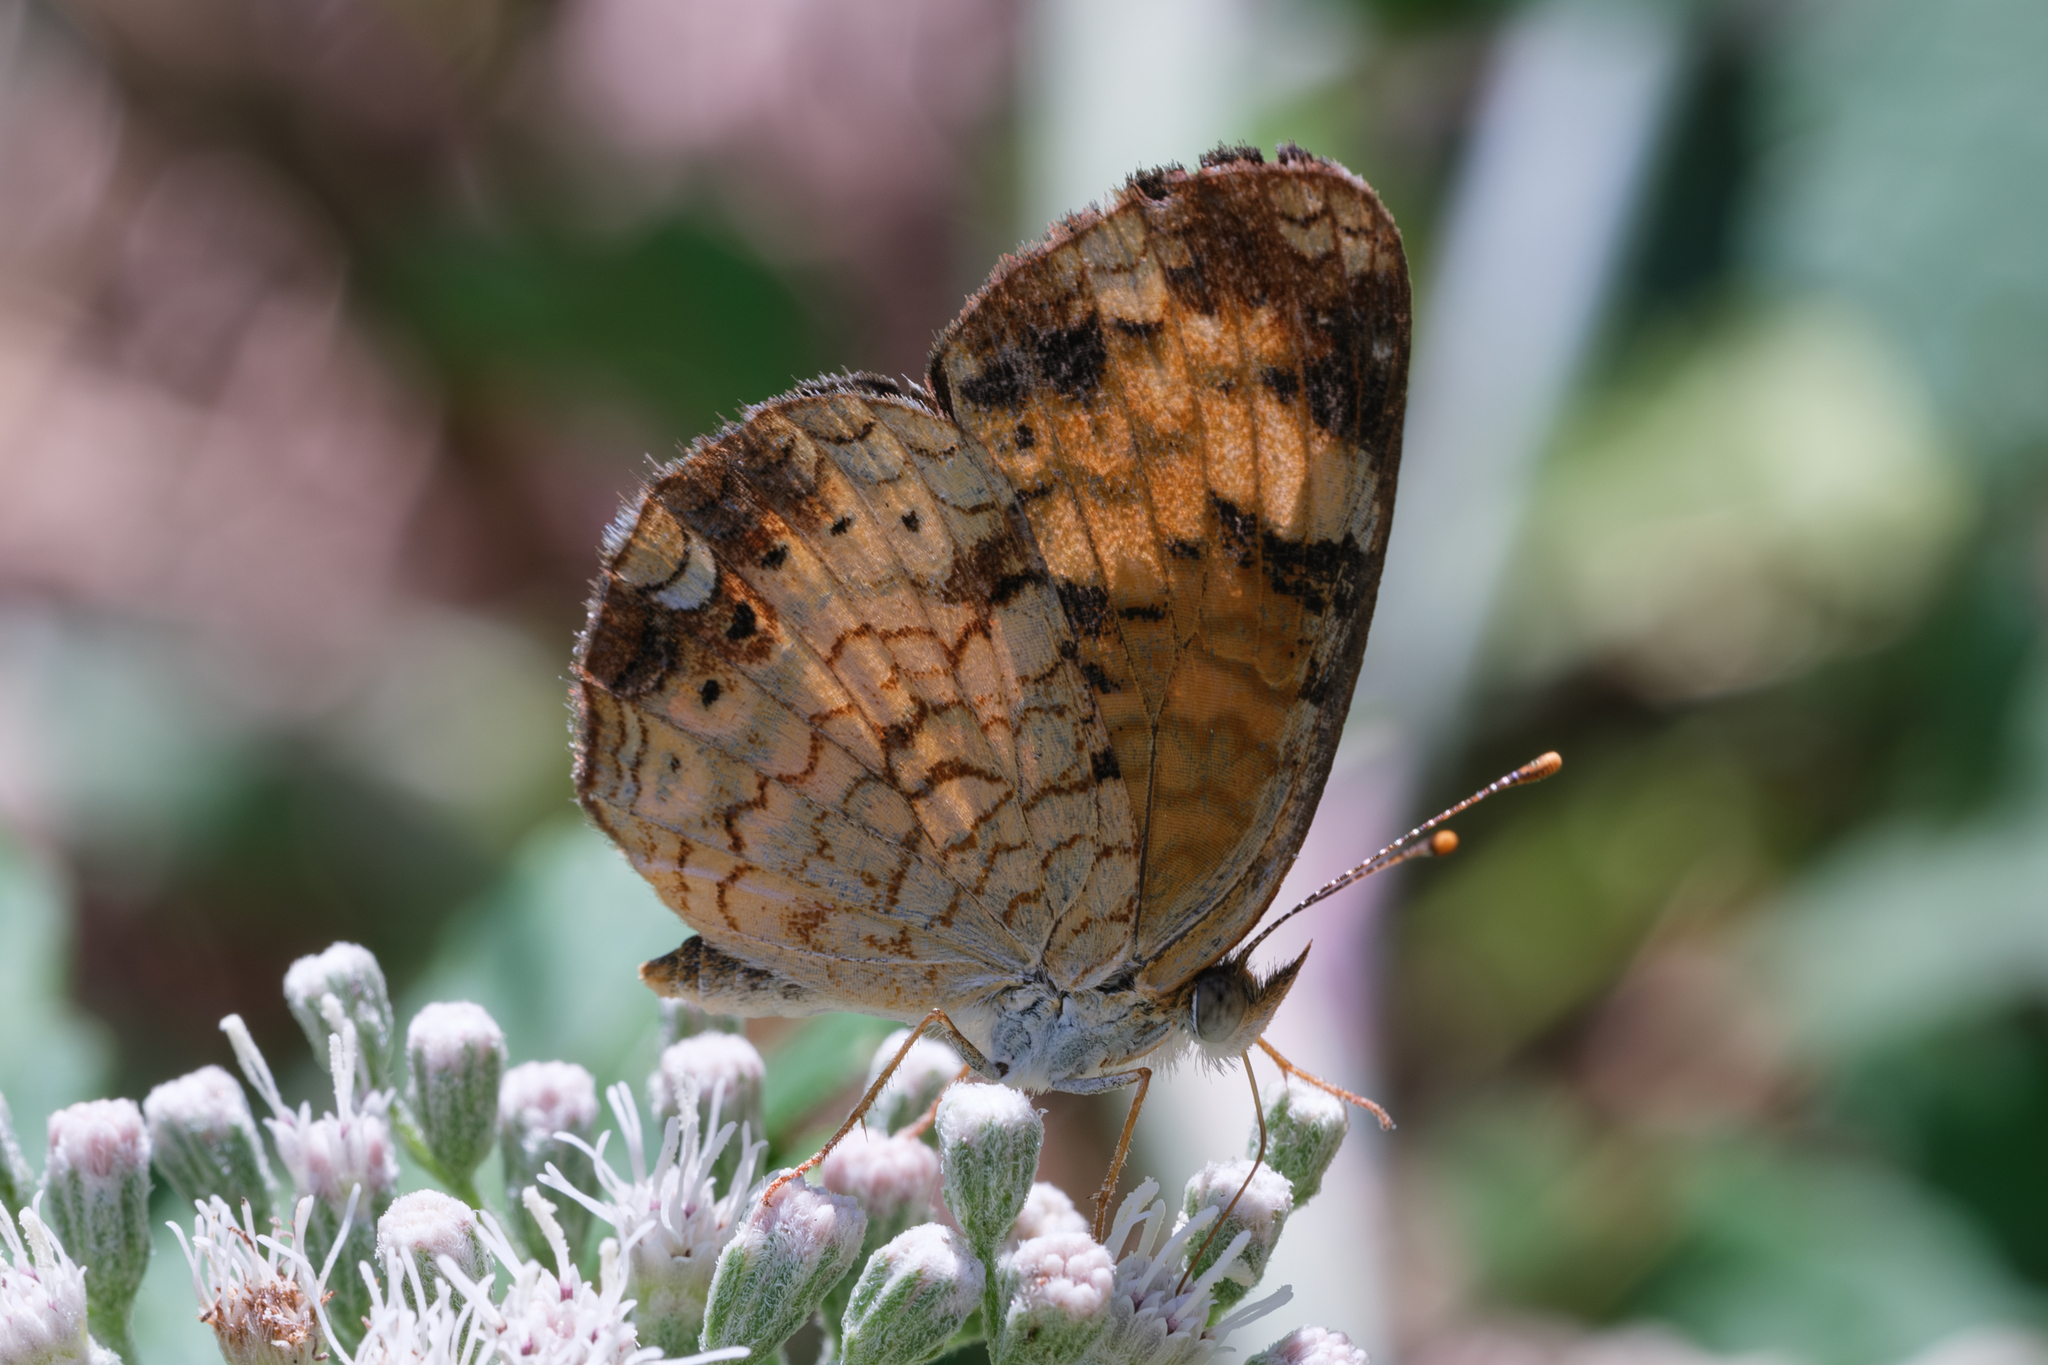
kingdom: Animalia
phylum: Arthropoda
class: Insecta
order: Lepidoptera
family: Nymphalidae
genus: Phyciodes
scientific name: Phyciodes tharos
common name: Pearl crescent
